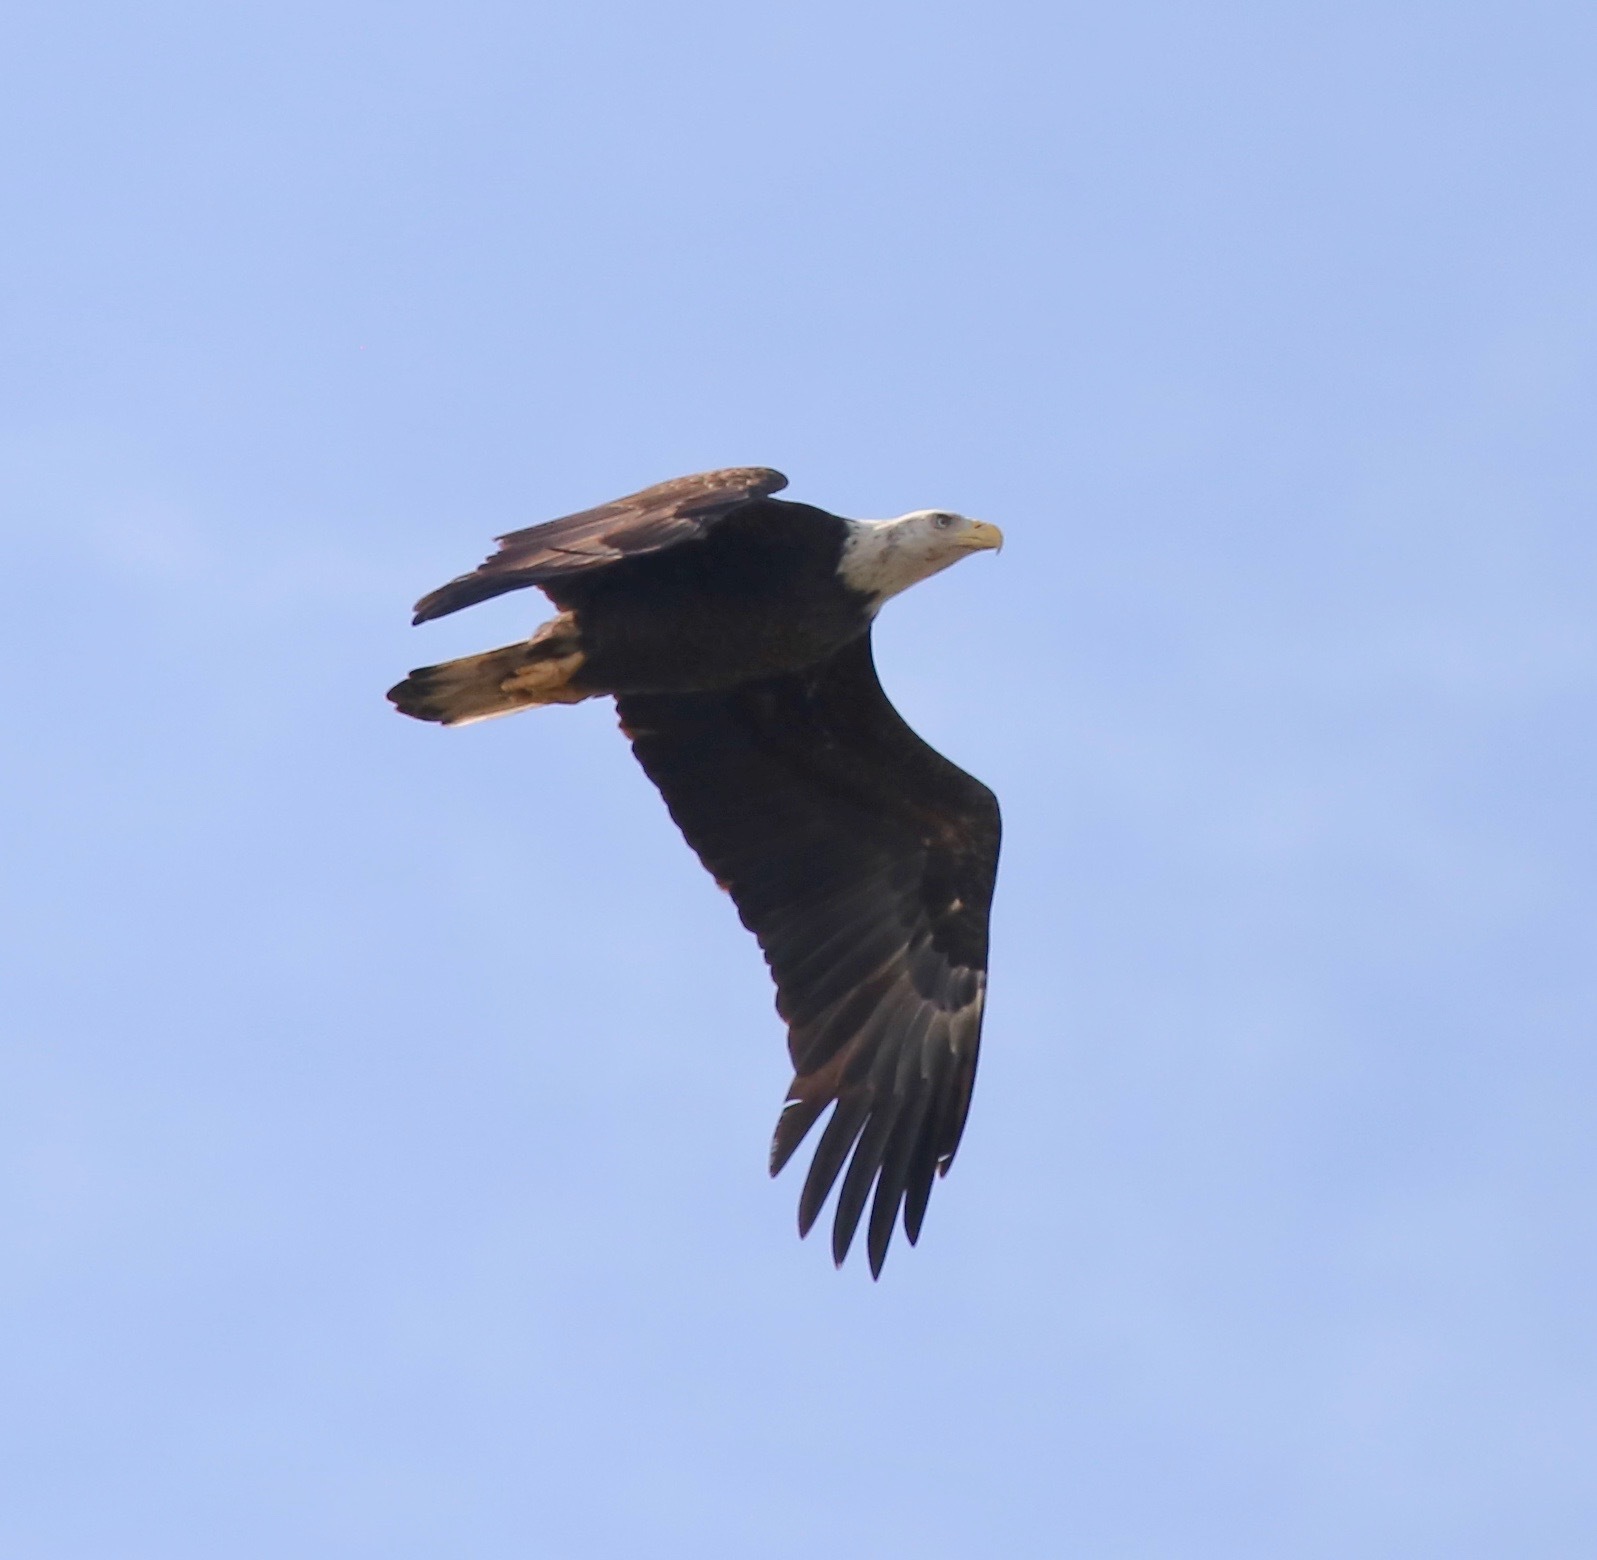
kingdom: Animalia
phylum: Chordata
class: Aves
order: Accipitriformes
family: Accipitridae
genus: Haliaeetus
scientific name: Haliaeetus leucocephalus
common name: Bald eagle
